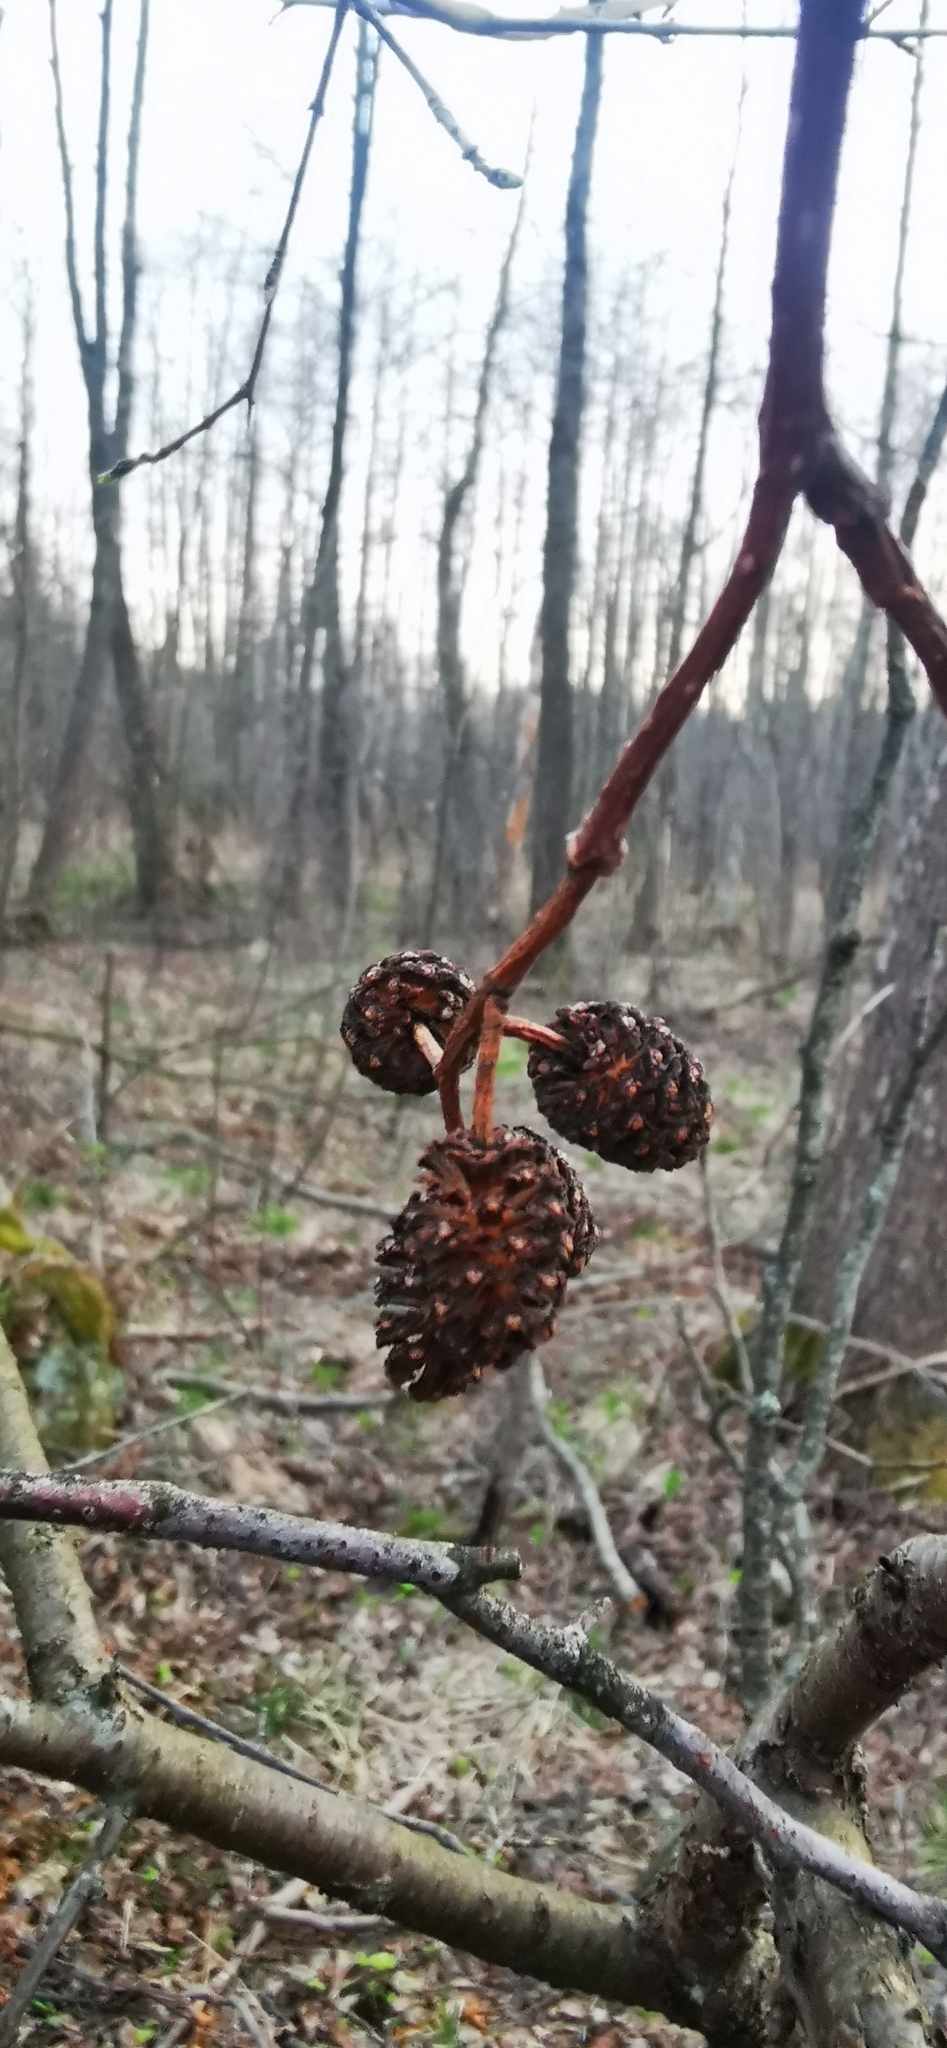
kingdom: Plantae
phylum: Tracheophyta
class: Magnoliopsida
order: Fagales
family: Betulaceae
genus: Alnus
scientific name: Alnus glutinosa
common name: Black alder
